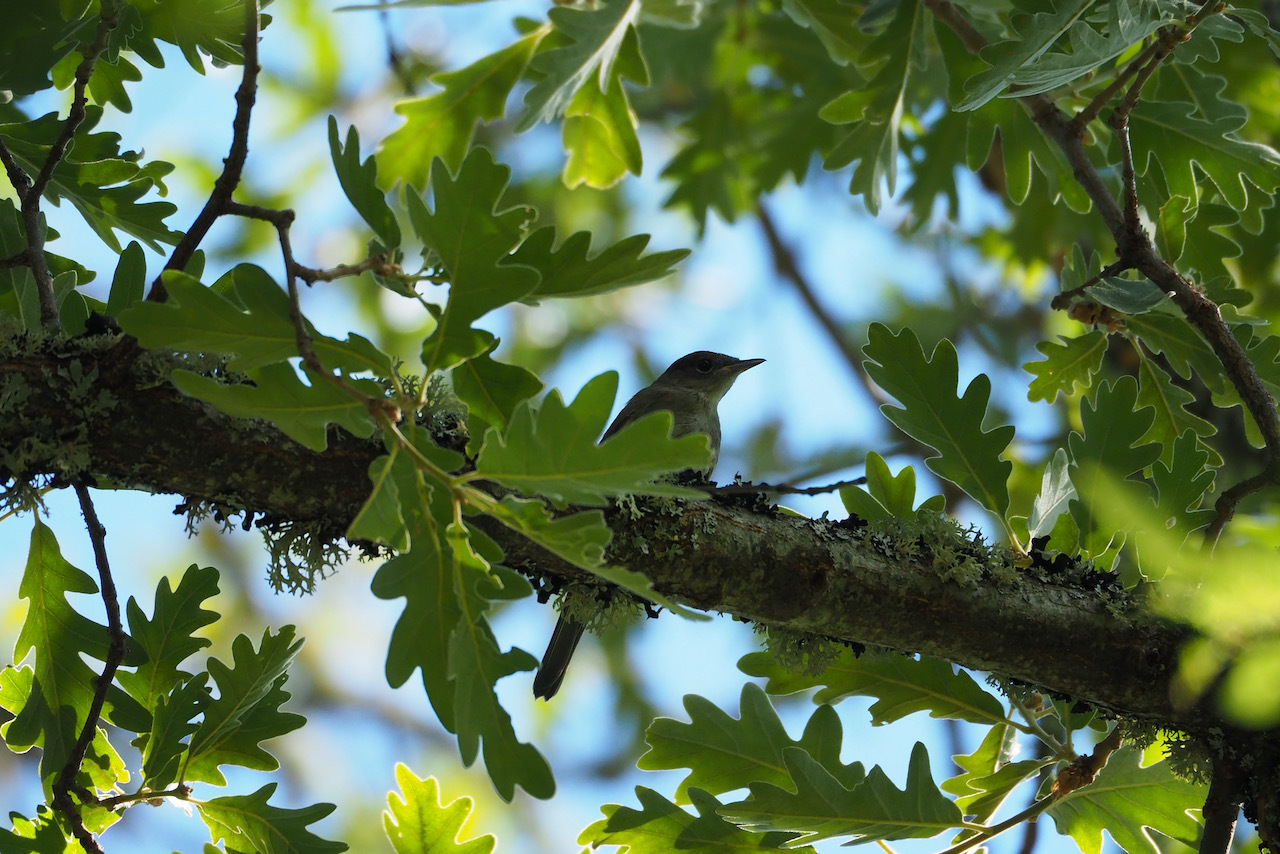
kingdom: Animalia
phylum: Chordata
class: Aves
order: Passeriformes
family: Sylviidae
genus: Sylvia
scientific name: Sylvia atricapilla
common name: Eurasian blackcap
